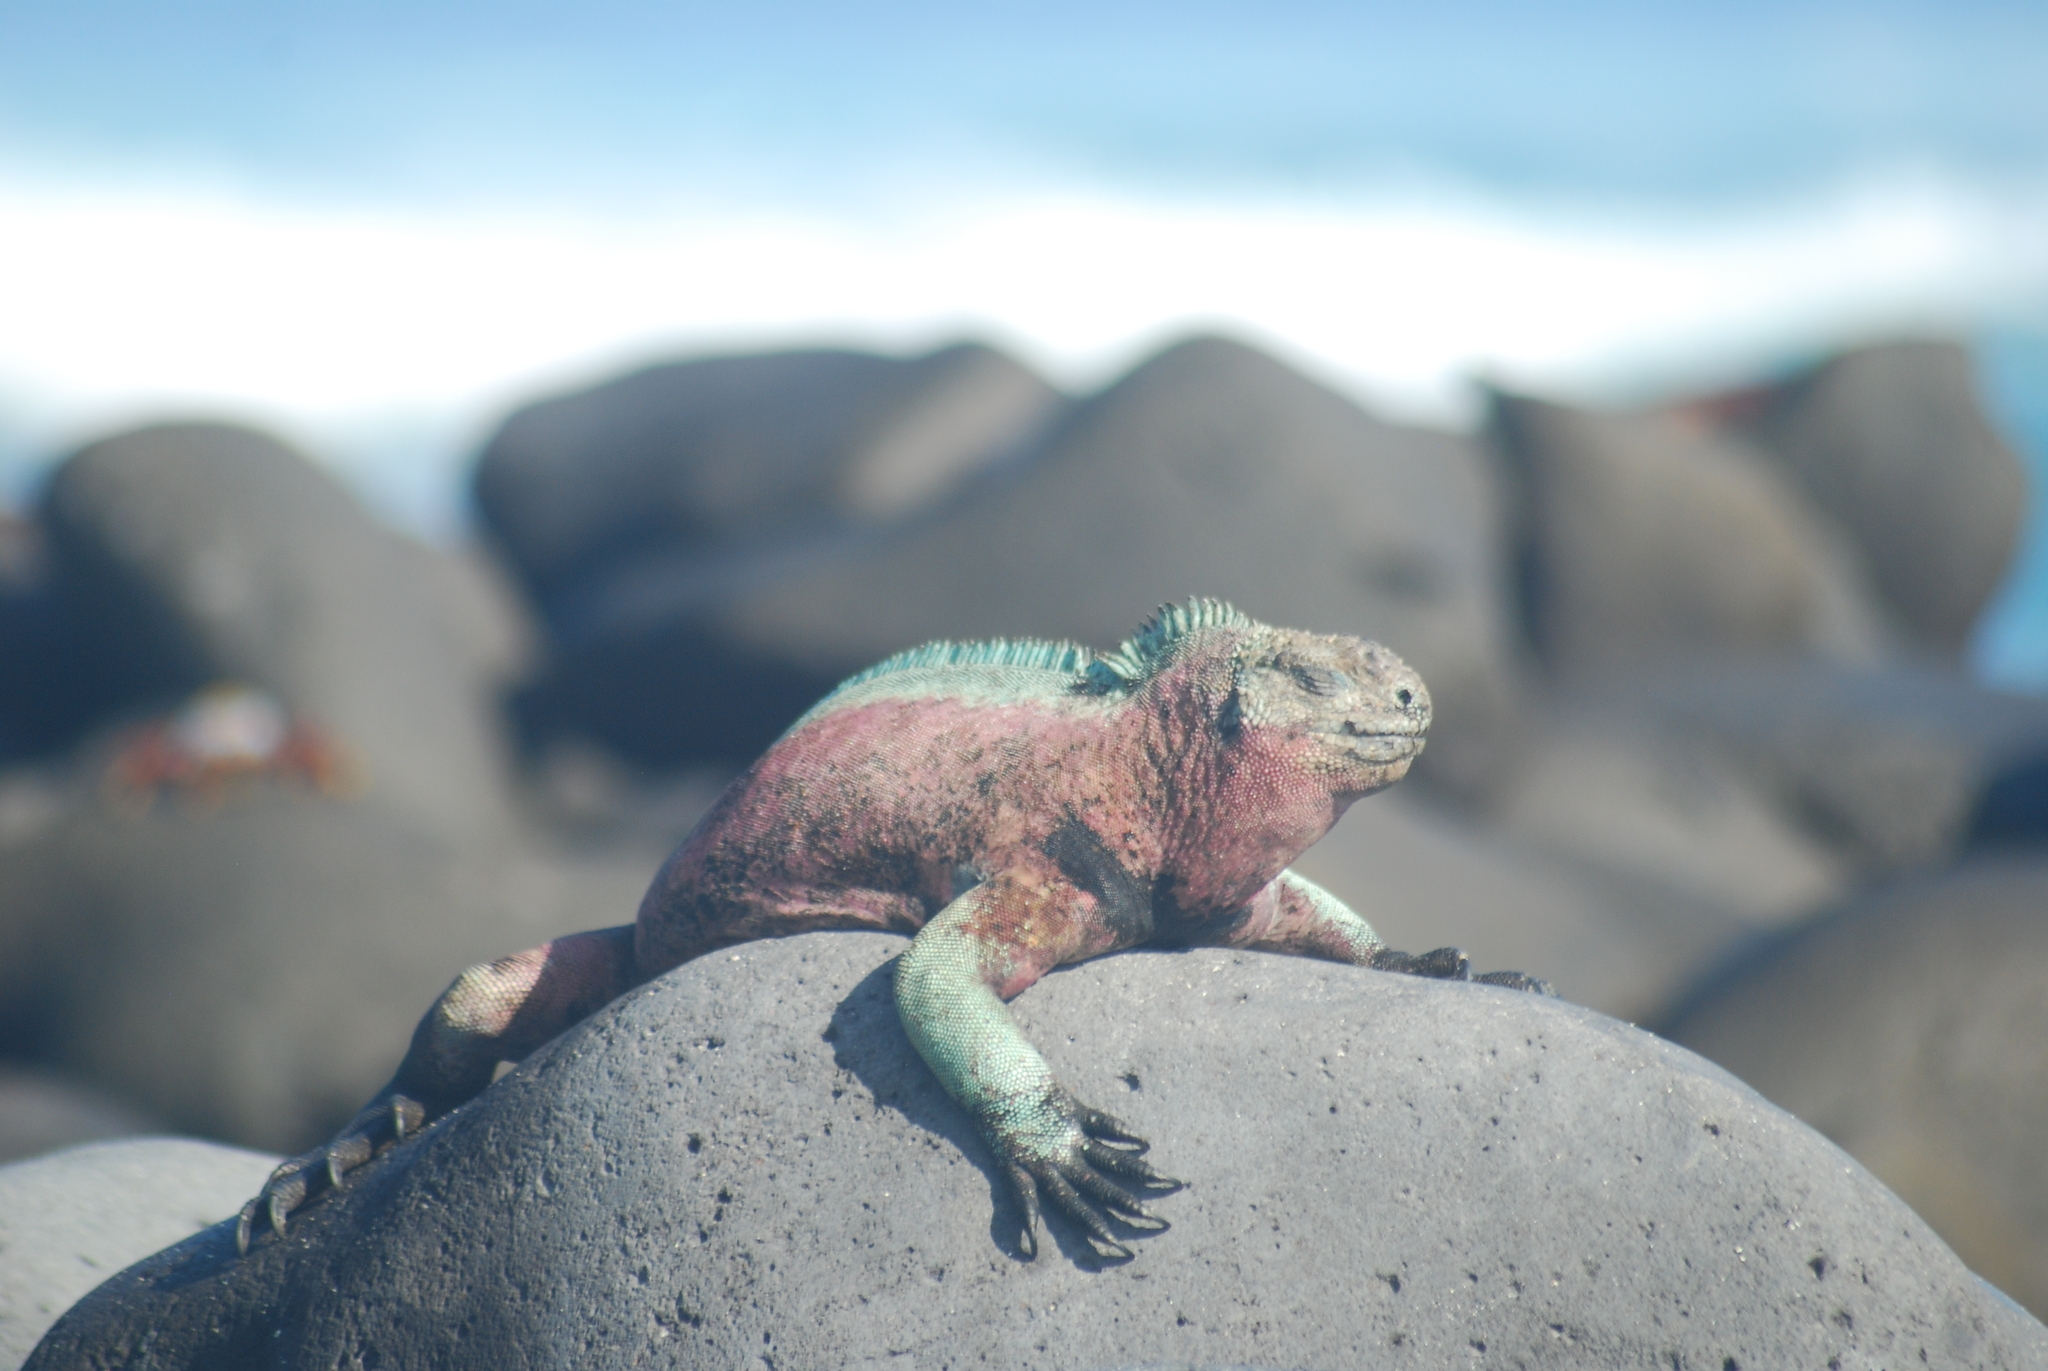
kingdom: Animalia
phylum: Chordata
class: Squamata
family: Iguanidae
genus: Amblyrhynchus
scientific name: Amblyrhynchus cristatus
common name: Marine iguana
